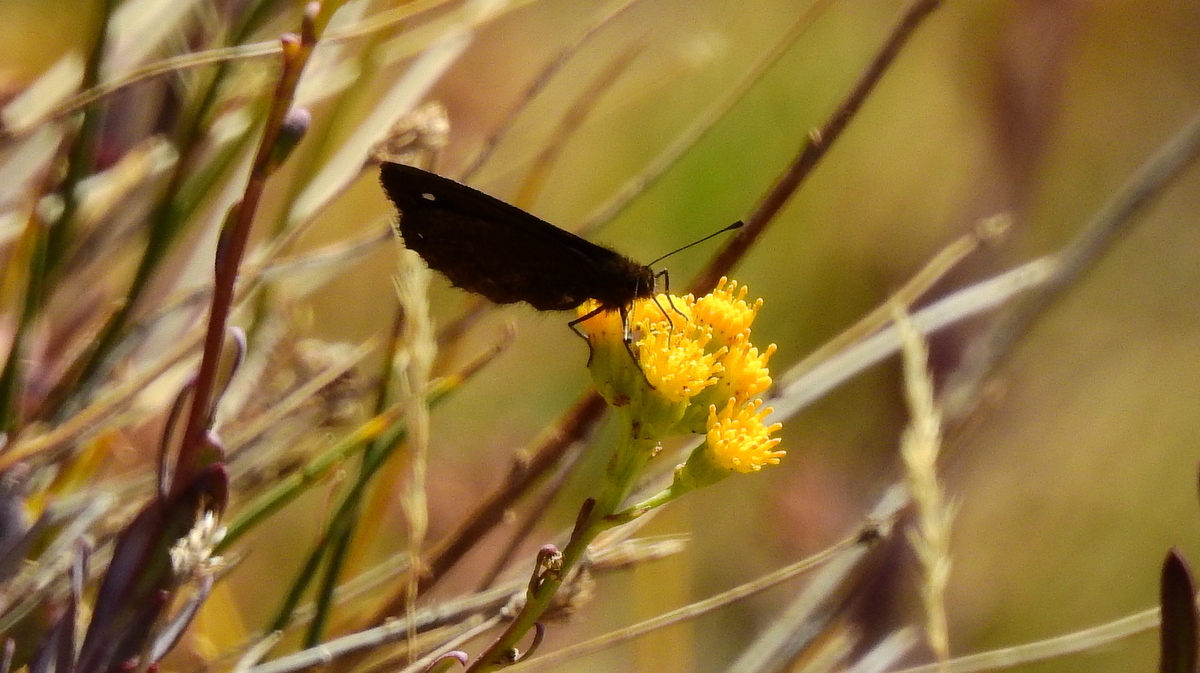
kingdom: Animalia
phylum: Arthropoda
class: Insecta
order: Lepidoptera
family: Nymphalidae
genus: Faunula
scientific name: Faunula leucoglene
